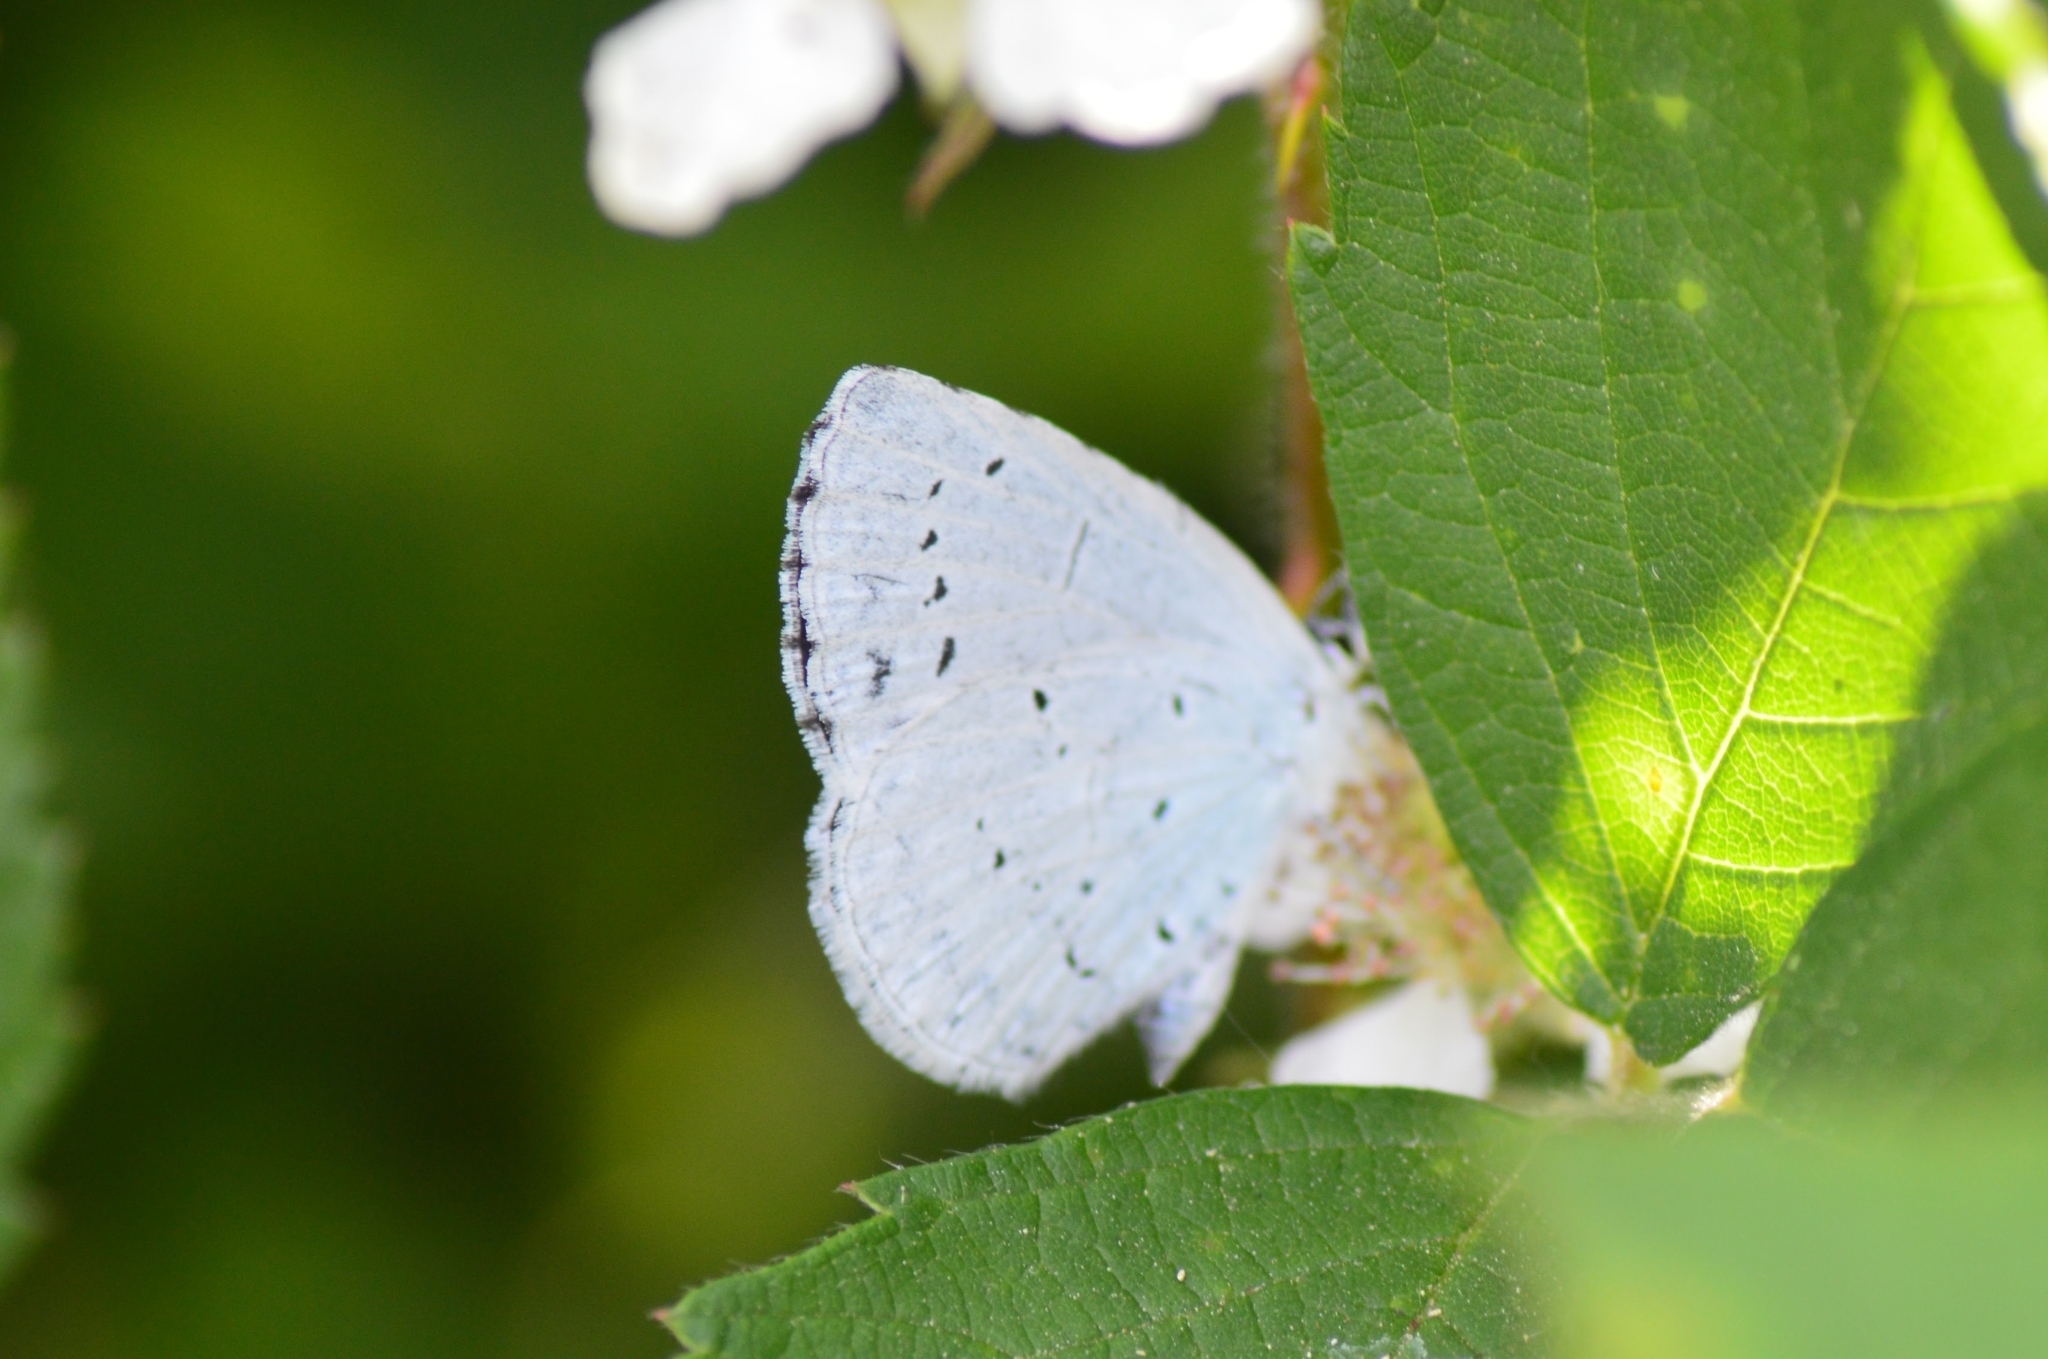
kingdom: Animalia
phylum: Arthropoda
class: Insecta
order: Lepidoptera
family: Lycaenidae
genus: Celastrina
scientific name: Celastrina argiolus
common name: Holly blue
